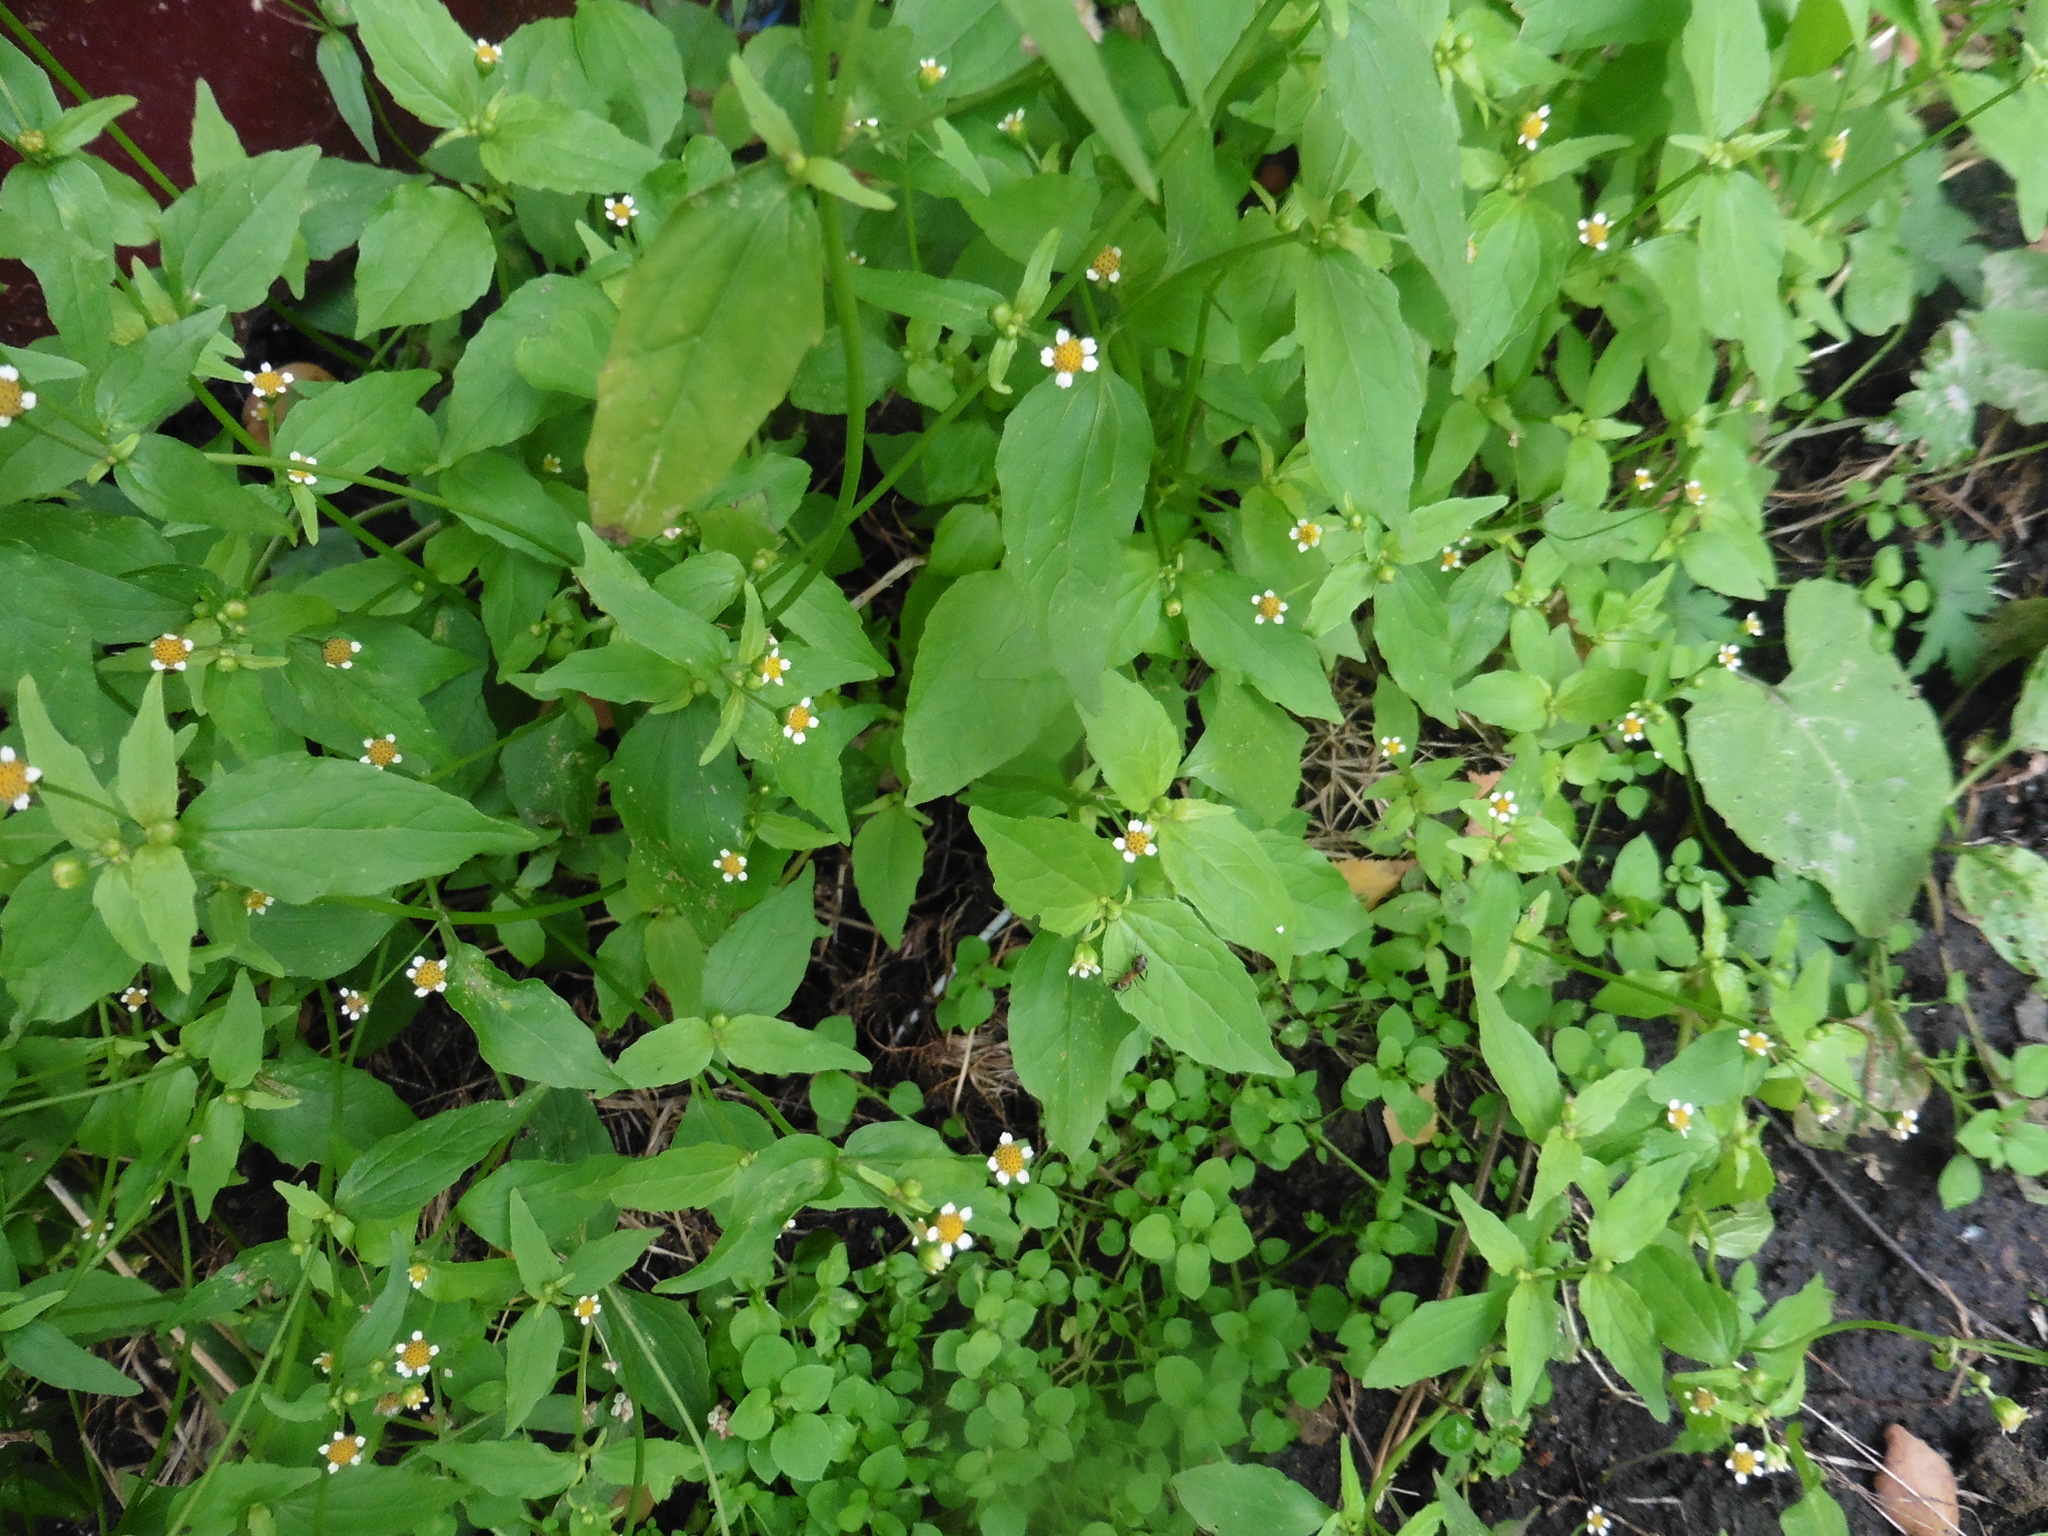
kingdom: Plantae
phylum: Tracheophyta
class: Magnoliopsida
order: Asterales
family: Asteraceae
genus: Galinsoga
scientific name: Galinsoga parviflora
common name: Gallant soldier
